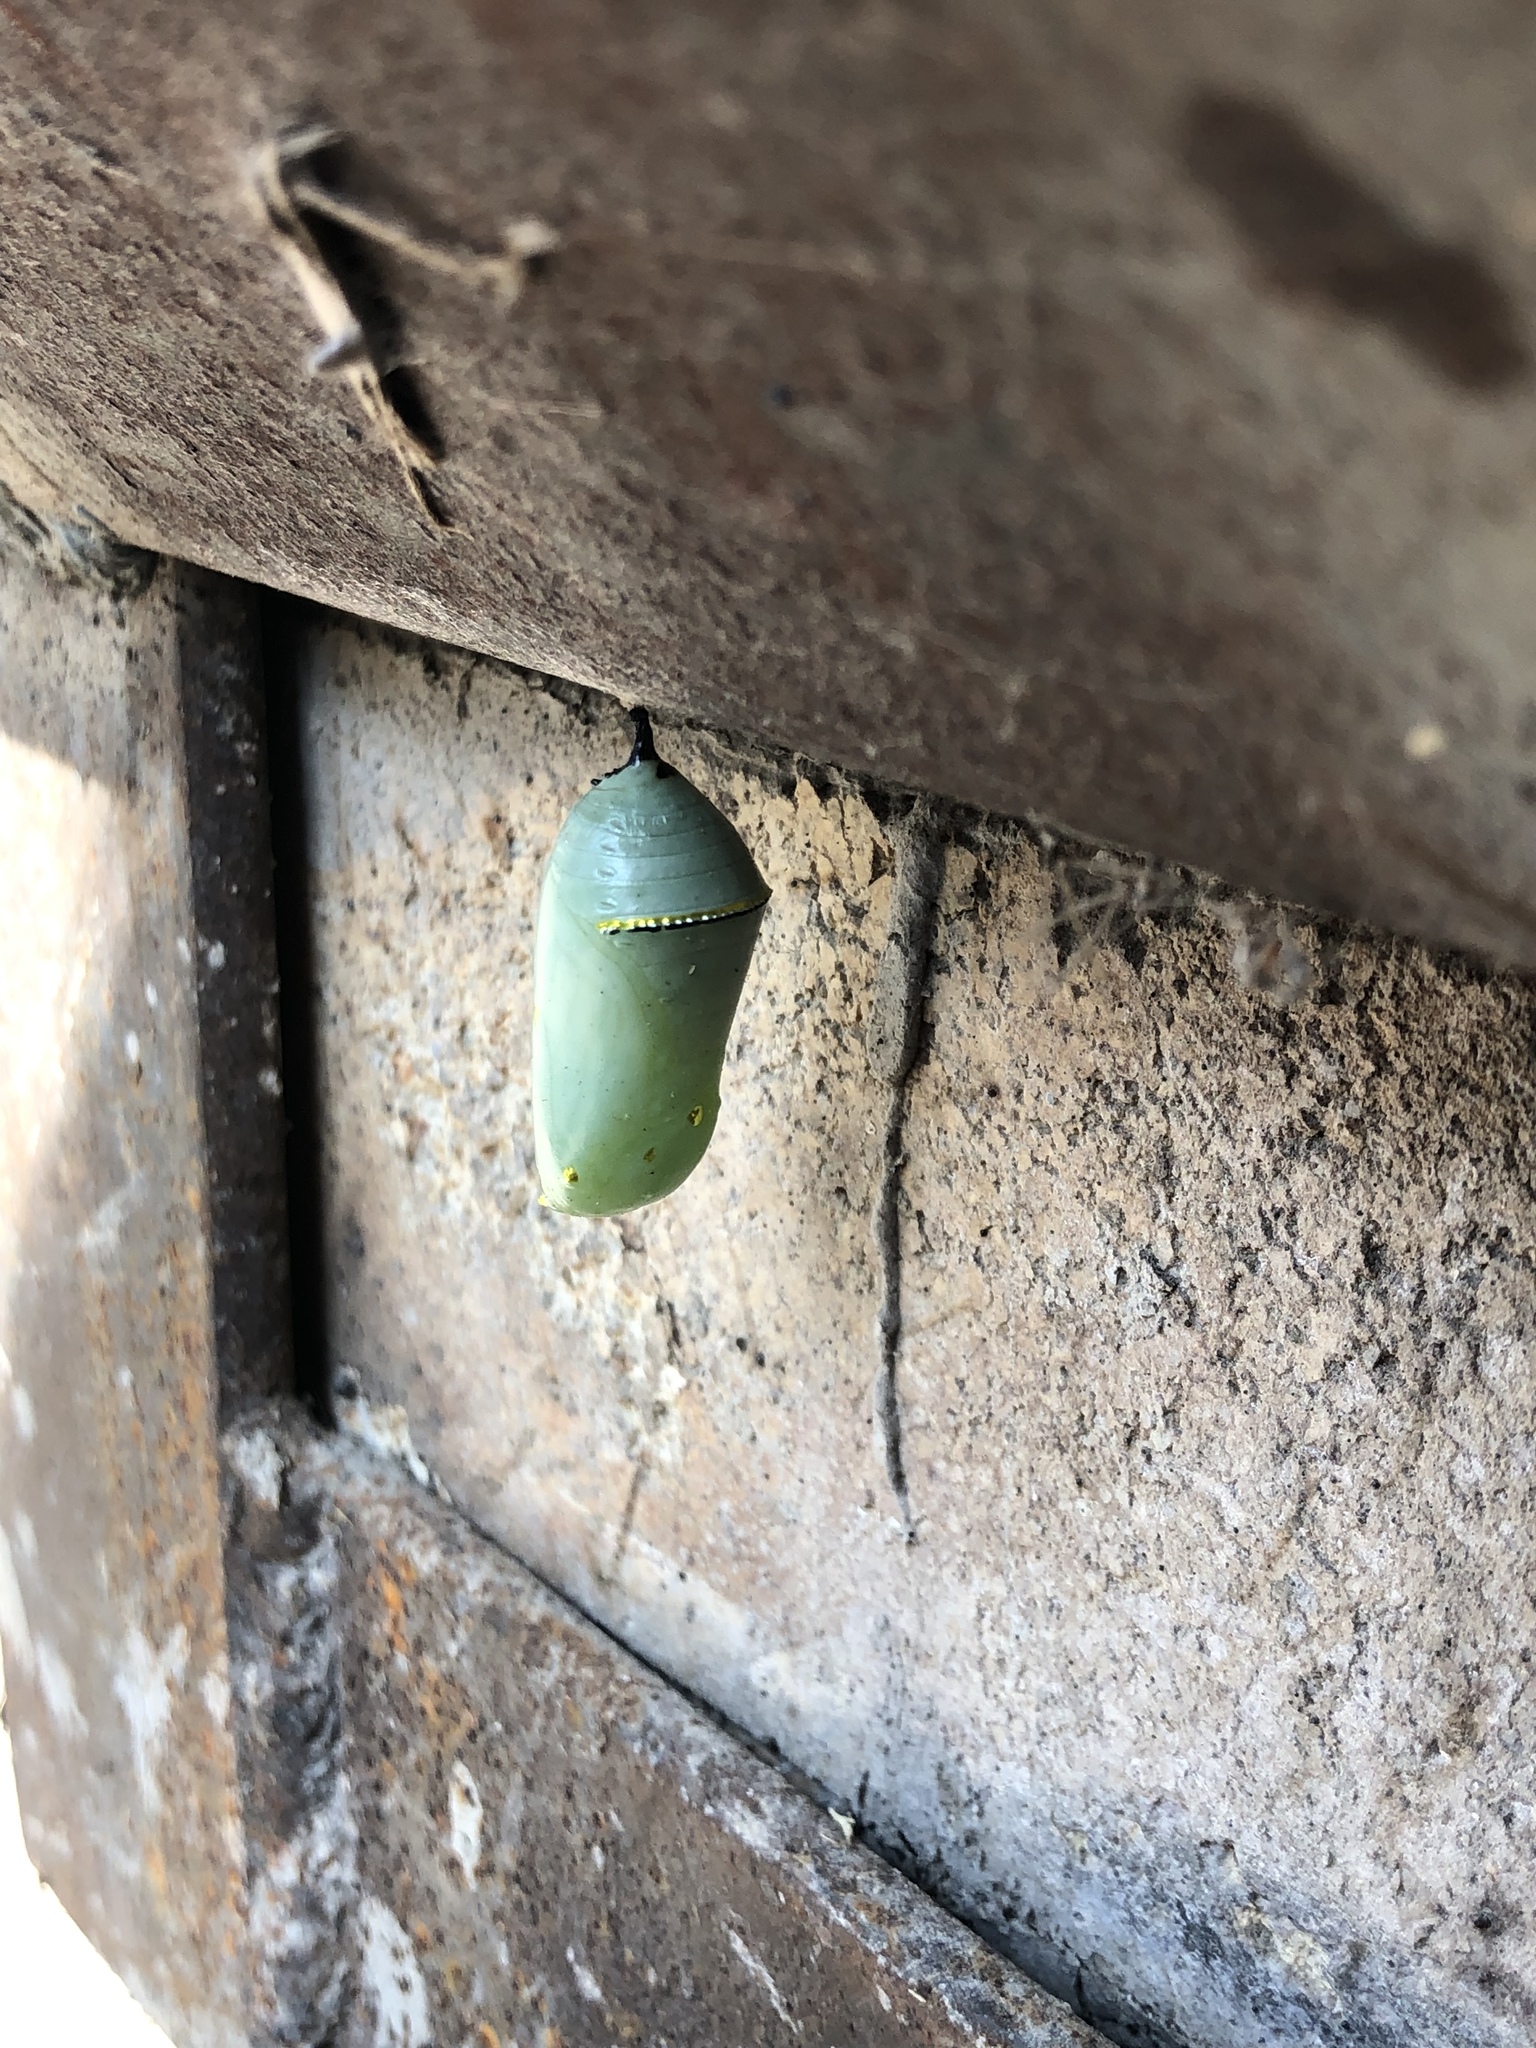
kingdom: Animalia
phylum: Arthropoda
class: Insecta
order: Lepidoptera
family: Nymphalidae
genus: Danaus
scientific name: Danaus plexippus
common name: Monarch
